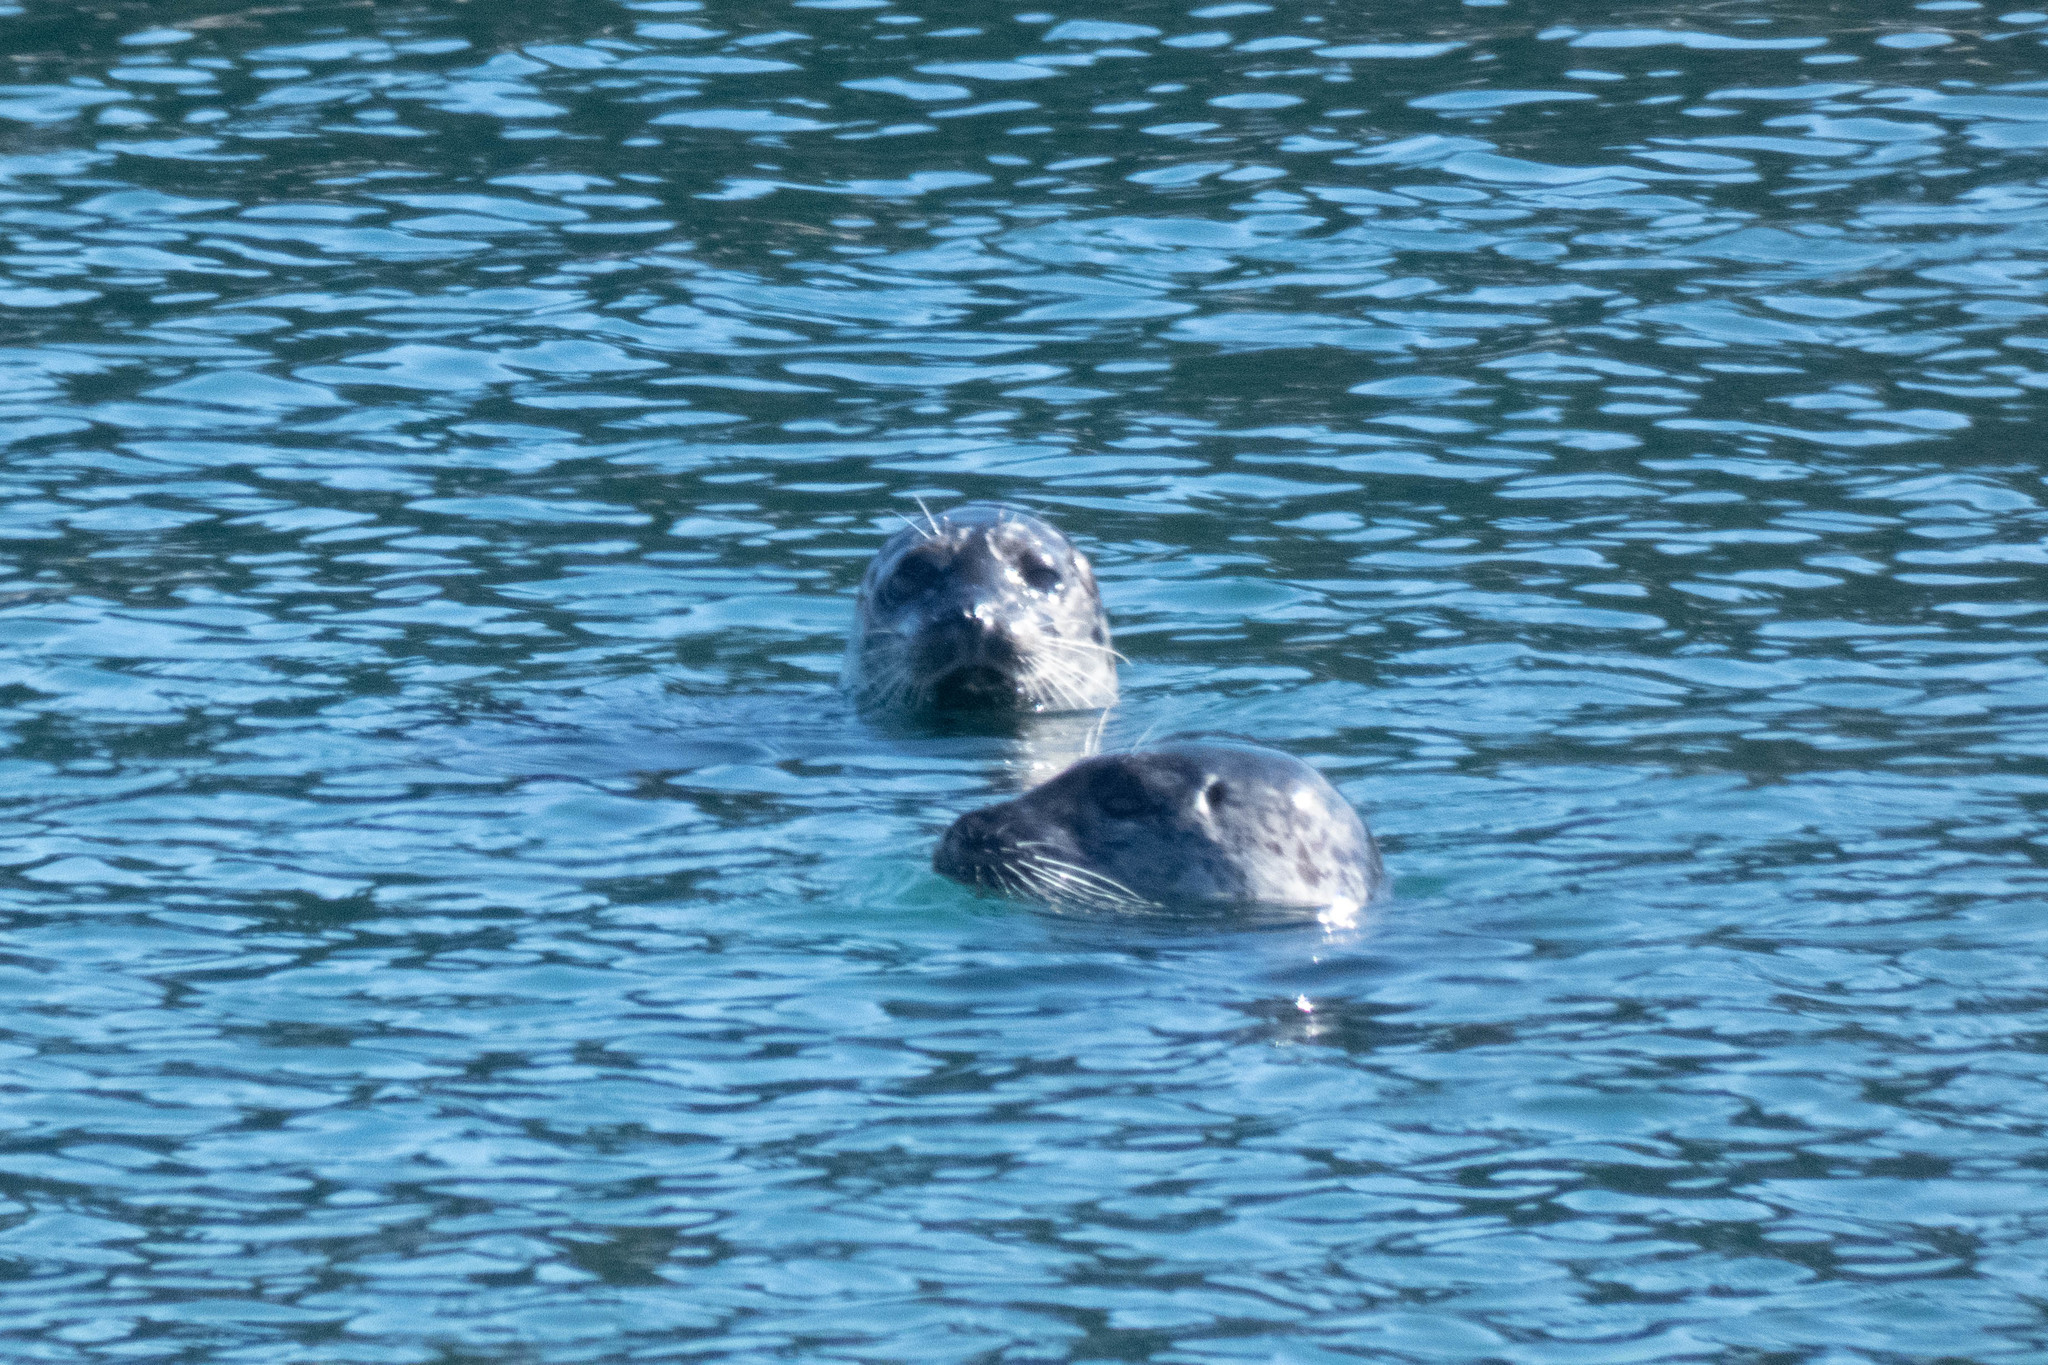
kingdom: Animalia
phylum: Chordata
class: Mammalia
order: Carnivora
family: Phocidae
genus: Phoca
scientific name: Phoca vitulina
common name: Harbor seal
